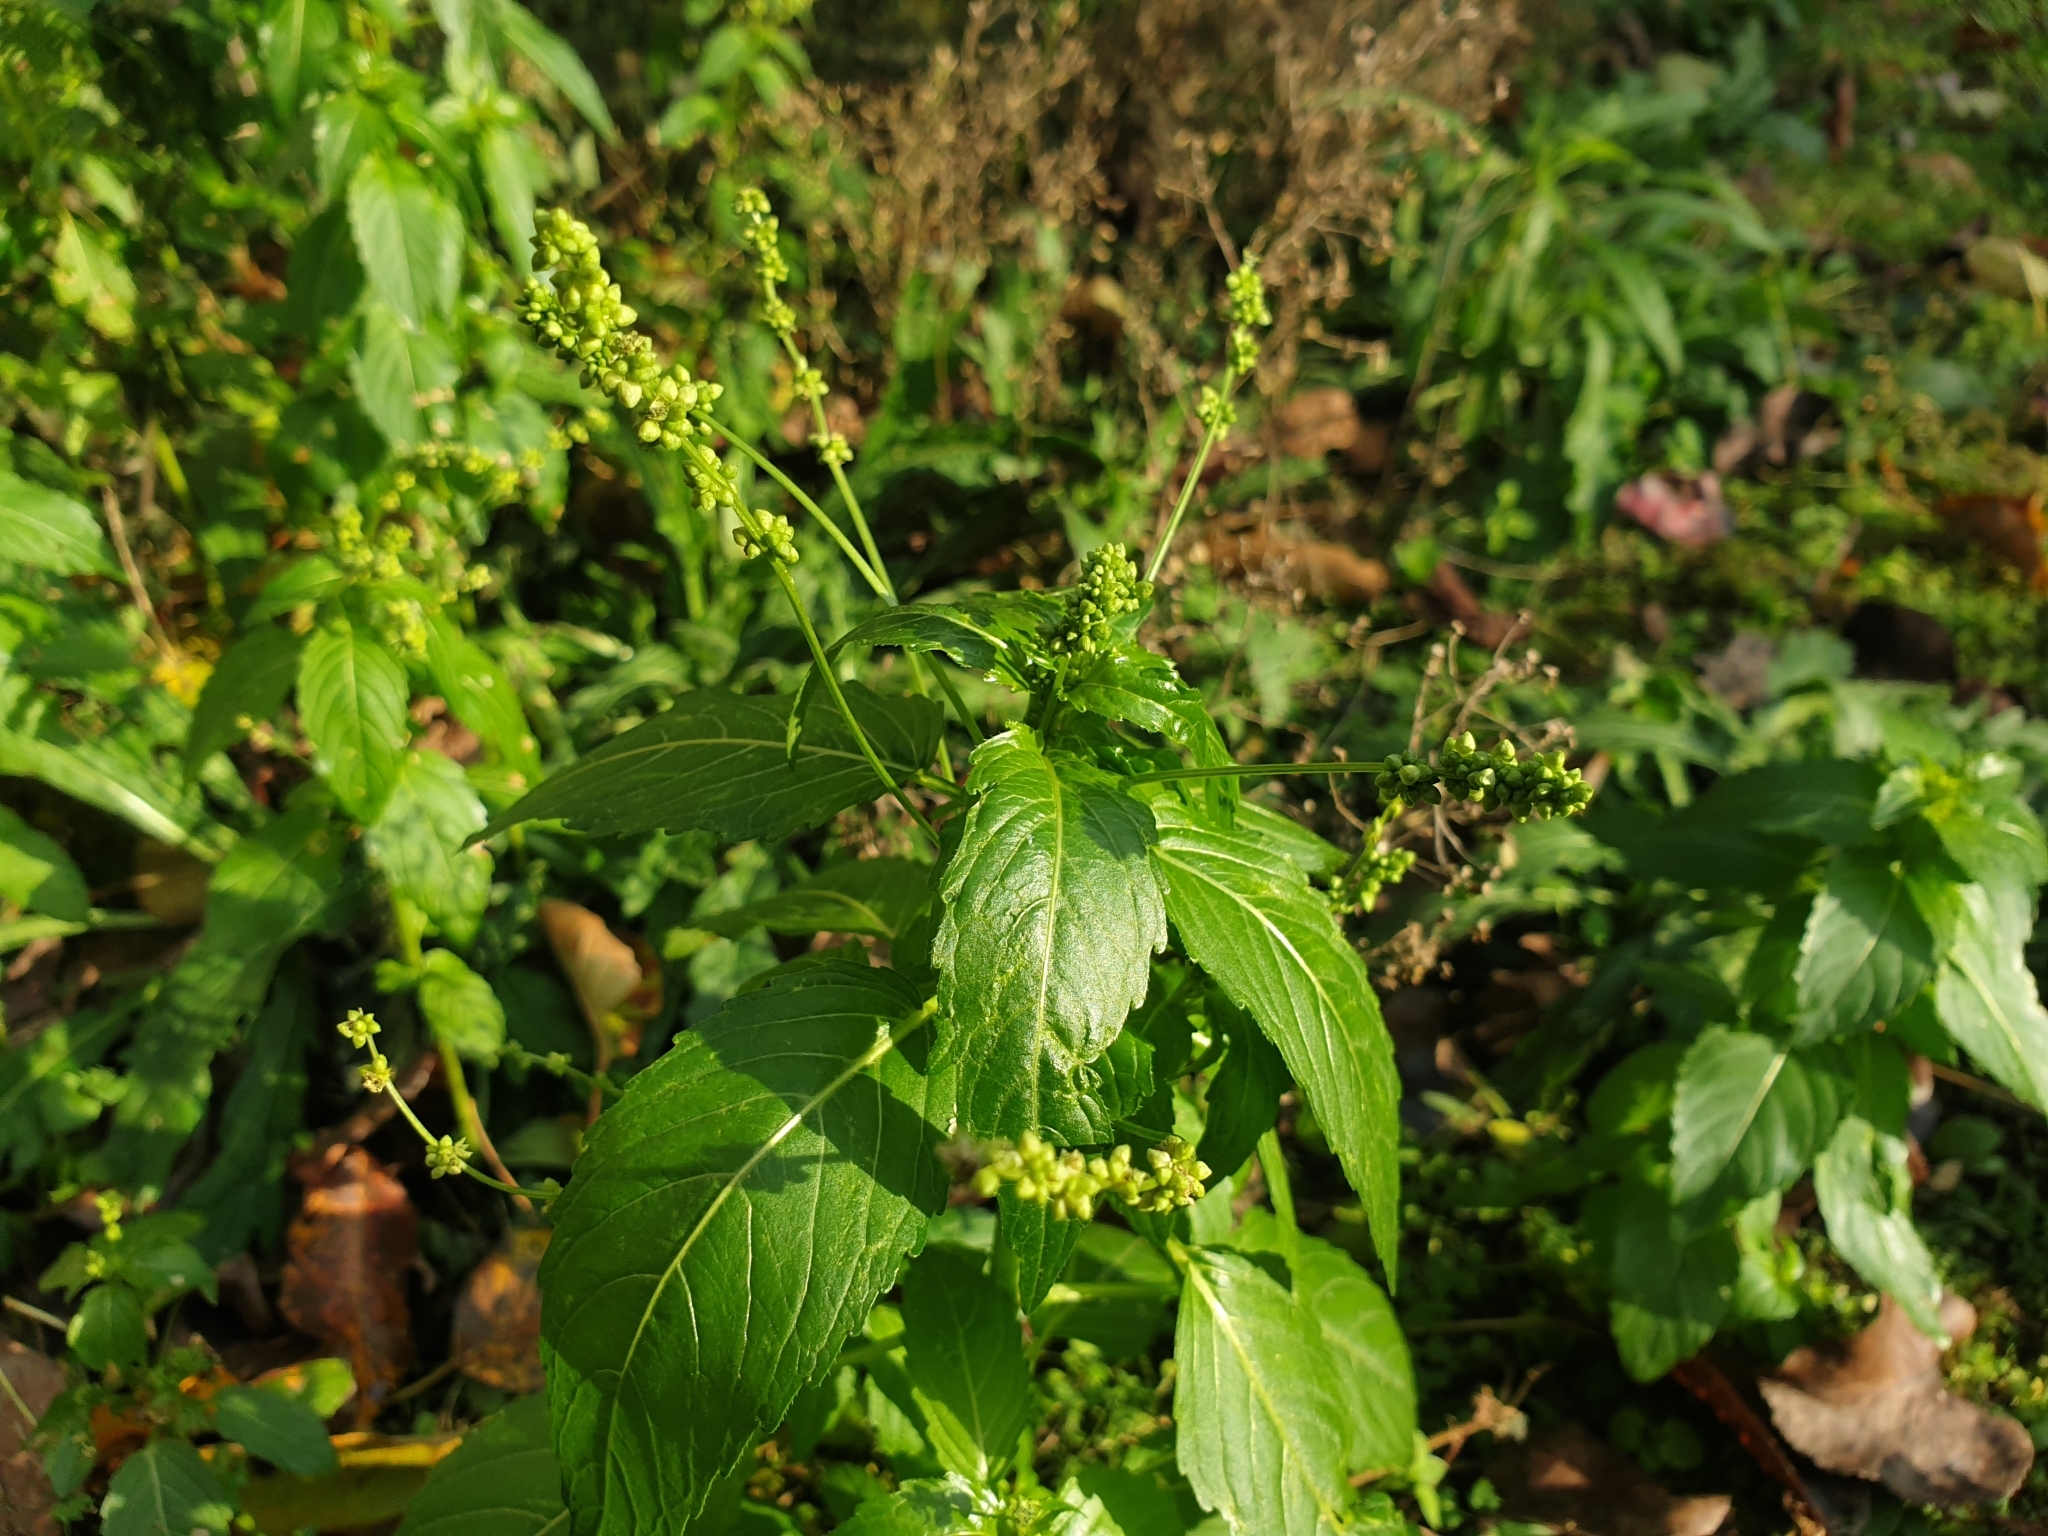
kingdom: Plantae
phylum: Tracheophyta
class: Magnoliopsida
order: Malpighiales
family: Euphorbiaceae
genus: Mercurialis
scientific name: Mercurialis annua
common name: Annual mercury
